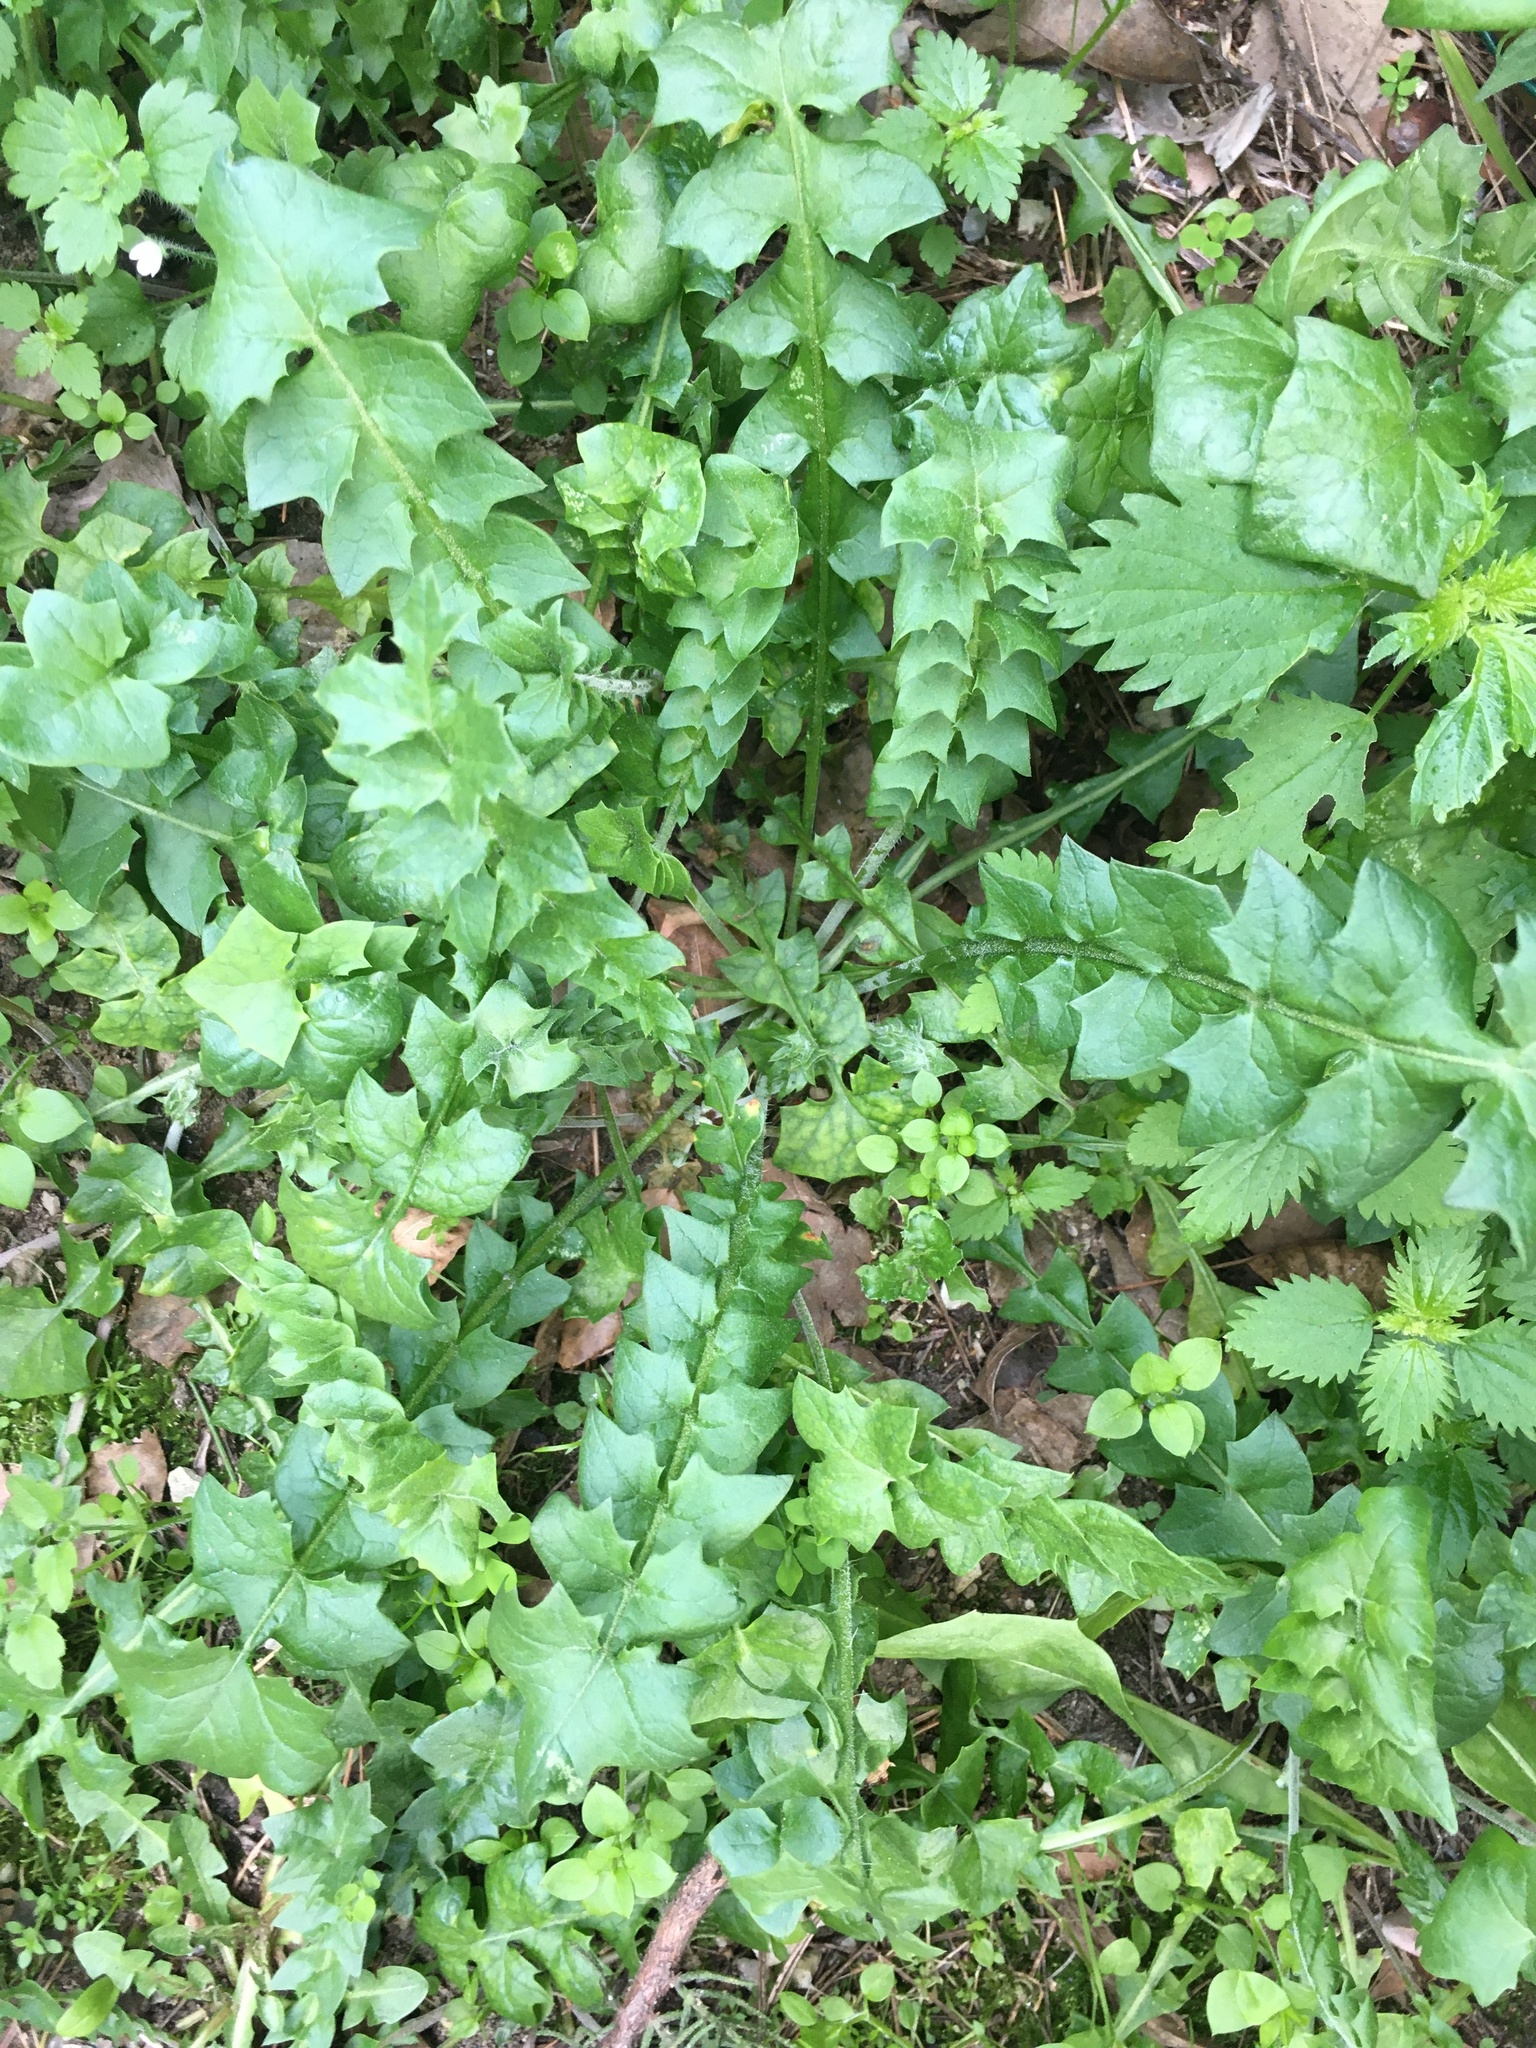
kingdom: Plantae
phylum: Tracheophyta
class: Magnoliopsida
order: Asterales
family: Asteraceae
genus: Hyoseris
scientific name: Hyoseris radiata
